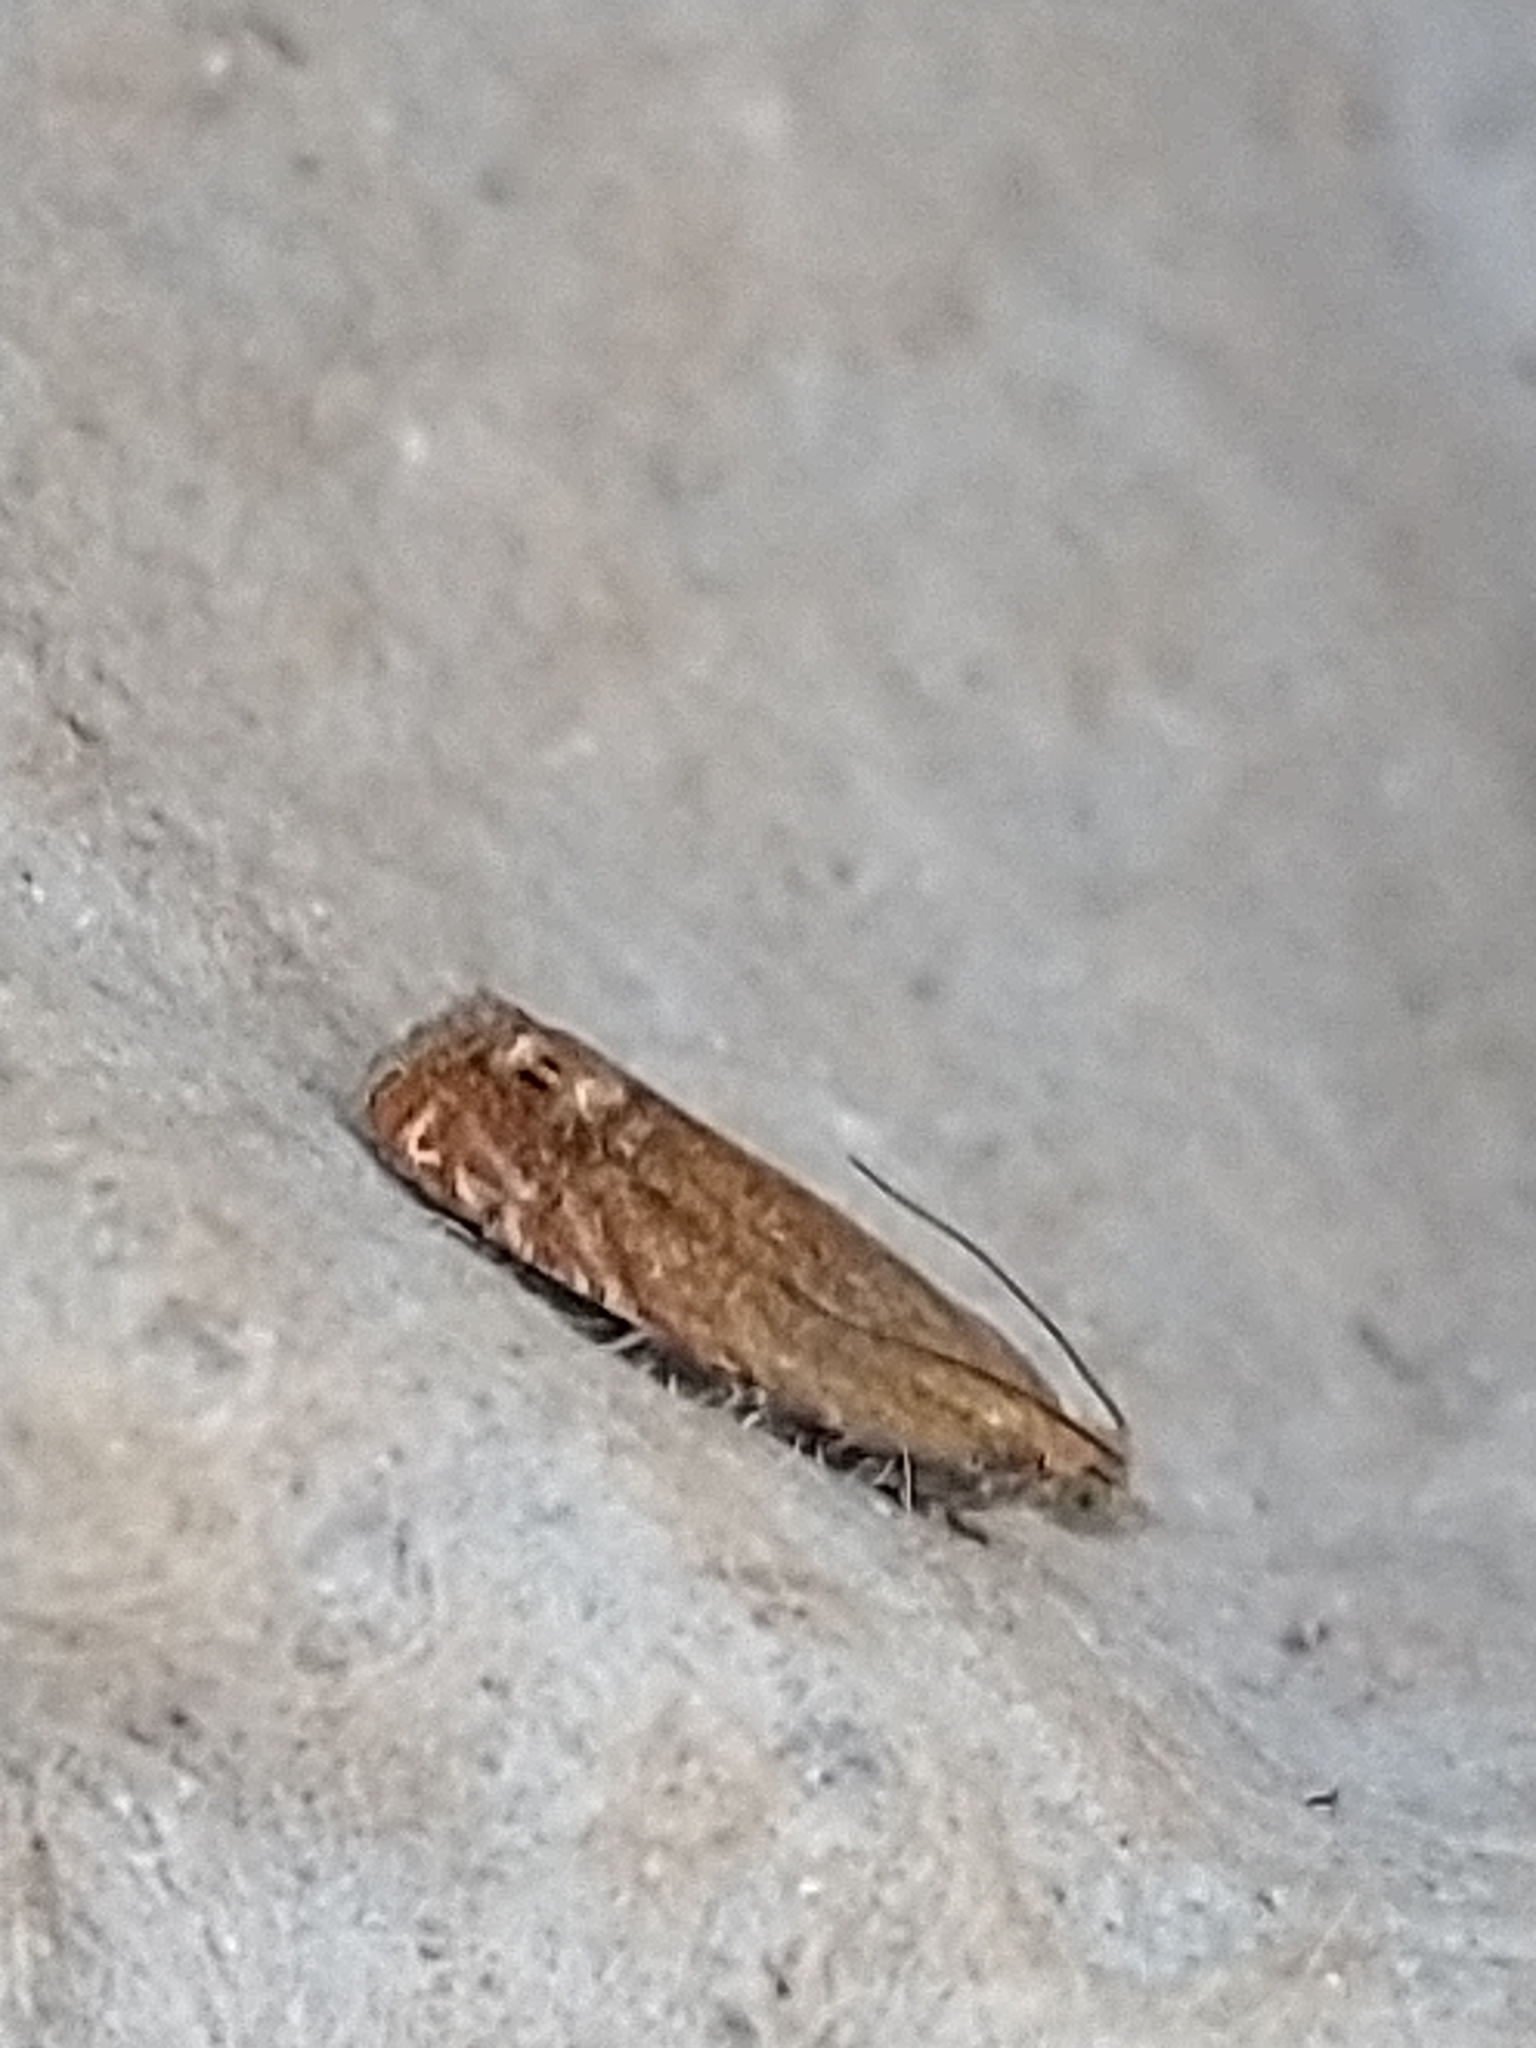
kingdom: Animalia
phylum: Arthropoda
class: Insecta
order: Lepidoptera
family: Tortricidae
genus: Lathronympha
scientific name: Lathronympha strigana
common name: Red piercer
